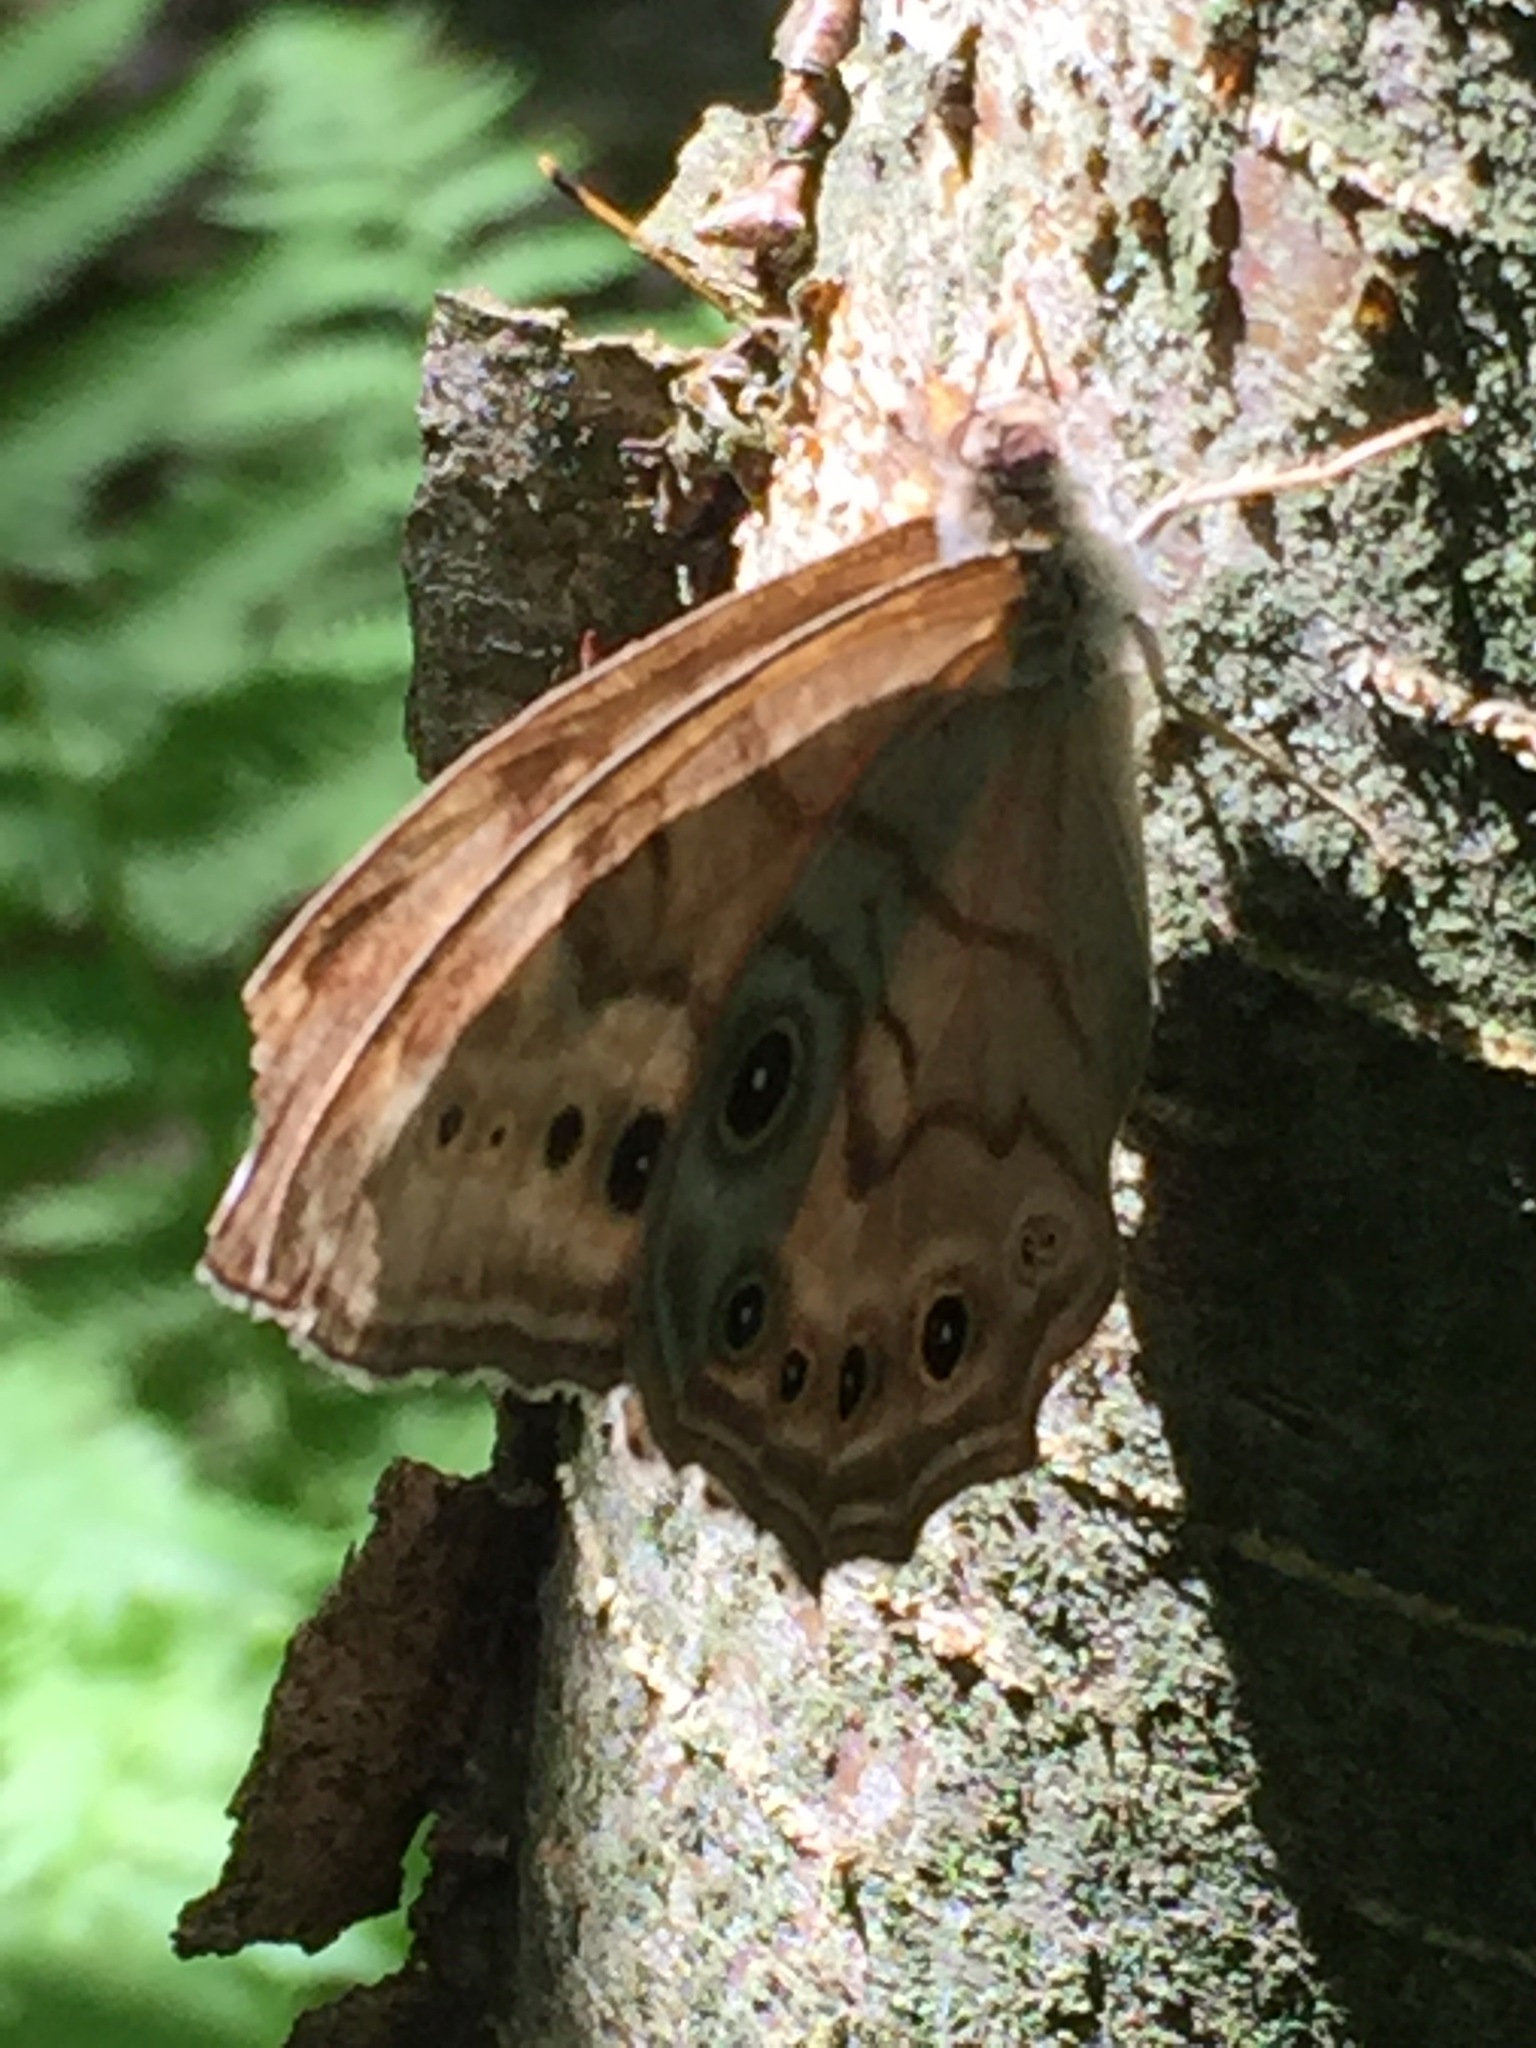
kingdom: Animalia
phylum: Arthropoda
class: Insecta
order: Lepidoptera
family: Nymphalidae
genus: Lethe
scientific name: Lethe anthedon
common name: Northern pearly-eye
